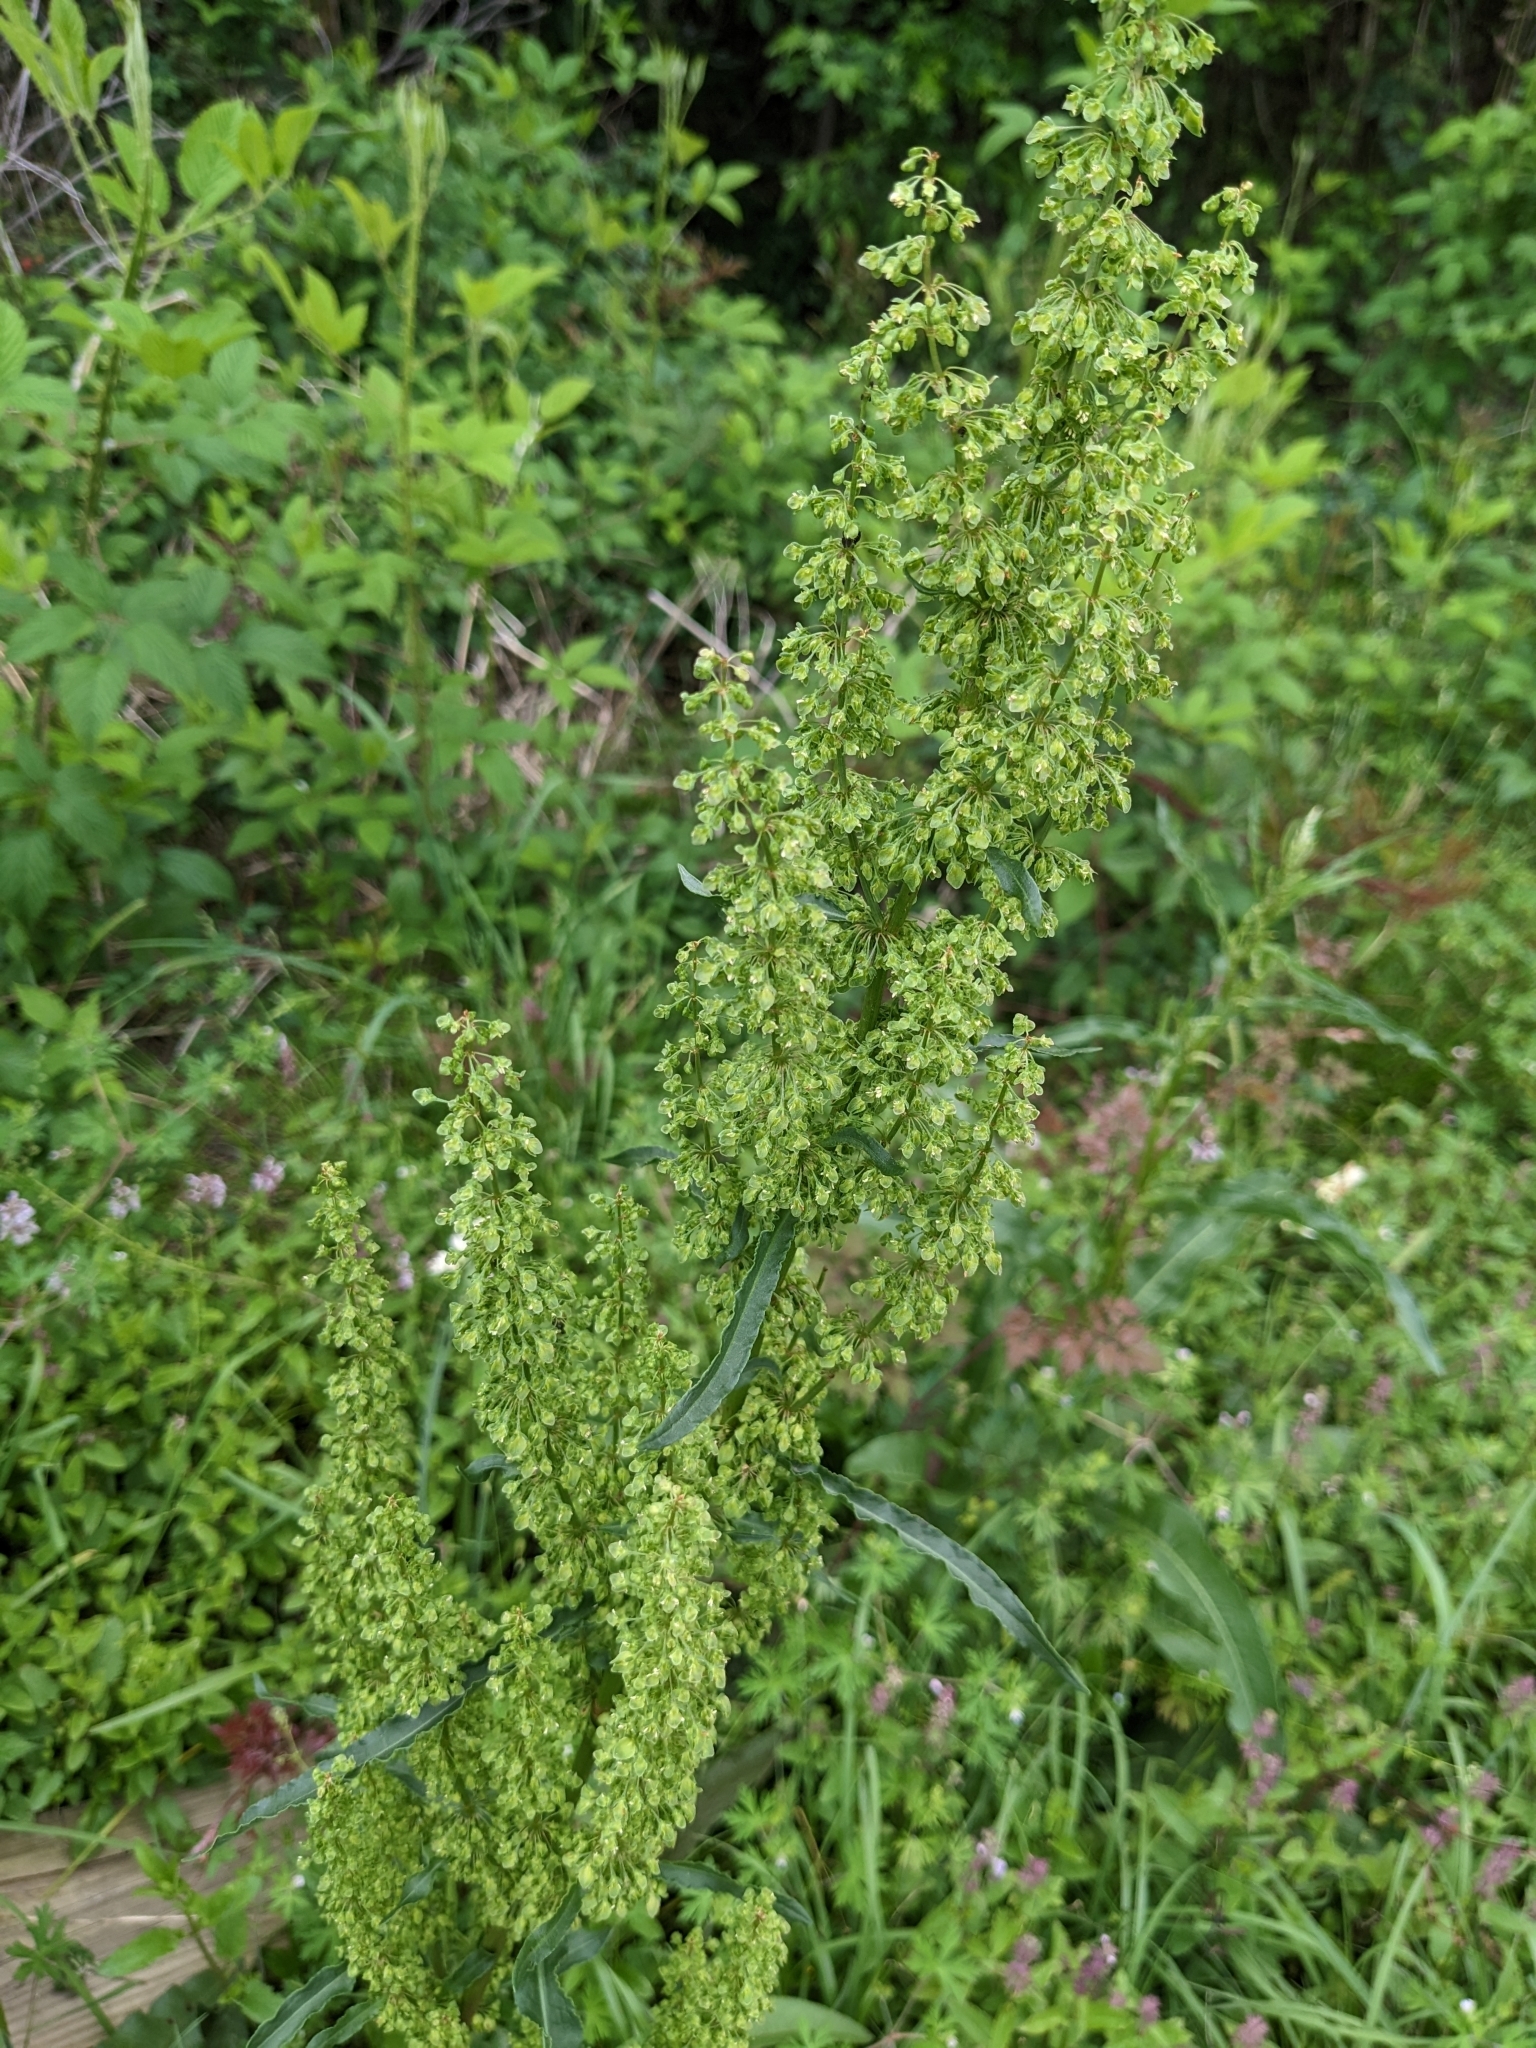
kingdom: Plantae
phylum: Tracheophyta
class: Magnoliopsida
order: Caryophyllales
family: Polygonaceae
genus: Rumex
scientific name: Rumex crispus
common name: Curled dock
